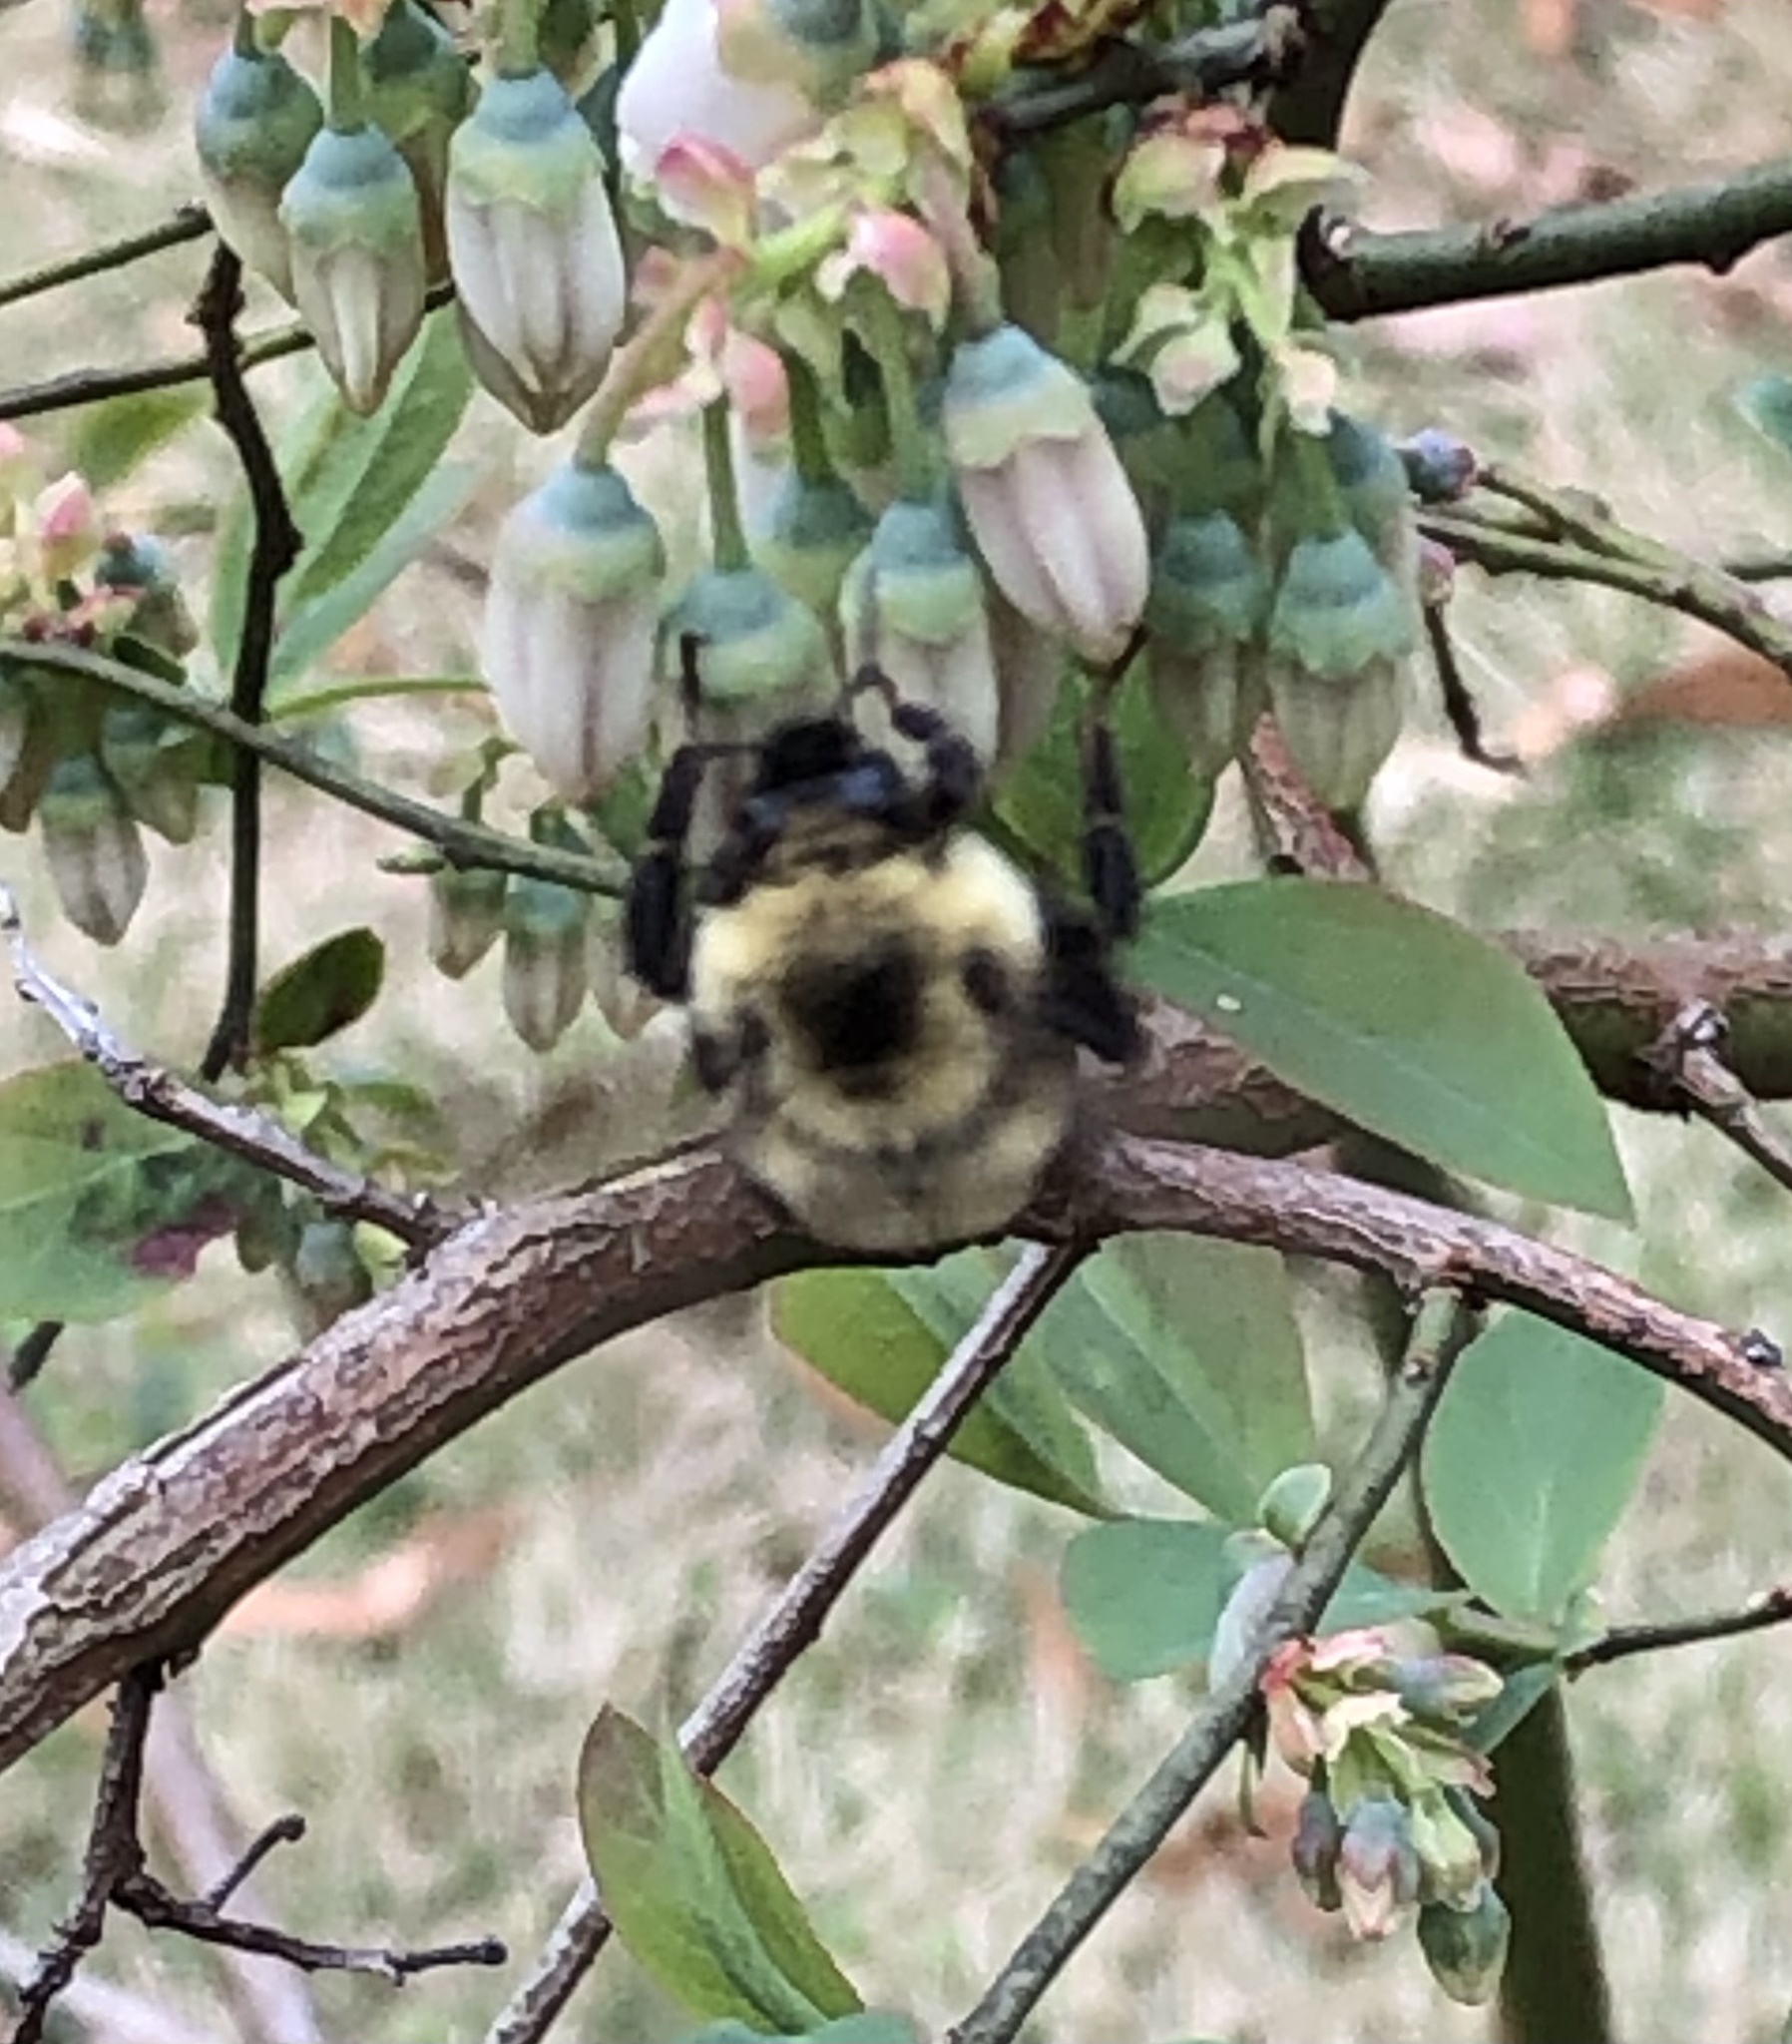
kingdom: Animalia
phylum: Arthropoda
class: Insecta
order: Hymenoptera
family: Apidae
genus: Bombus
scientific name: Bombus bimaculatus
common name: Two-spotted bumble bee
